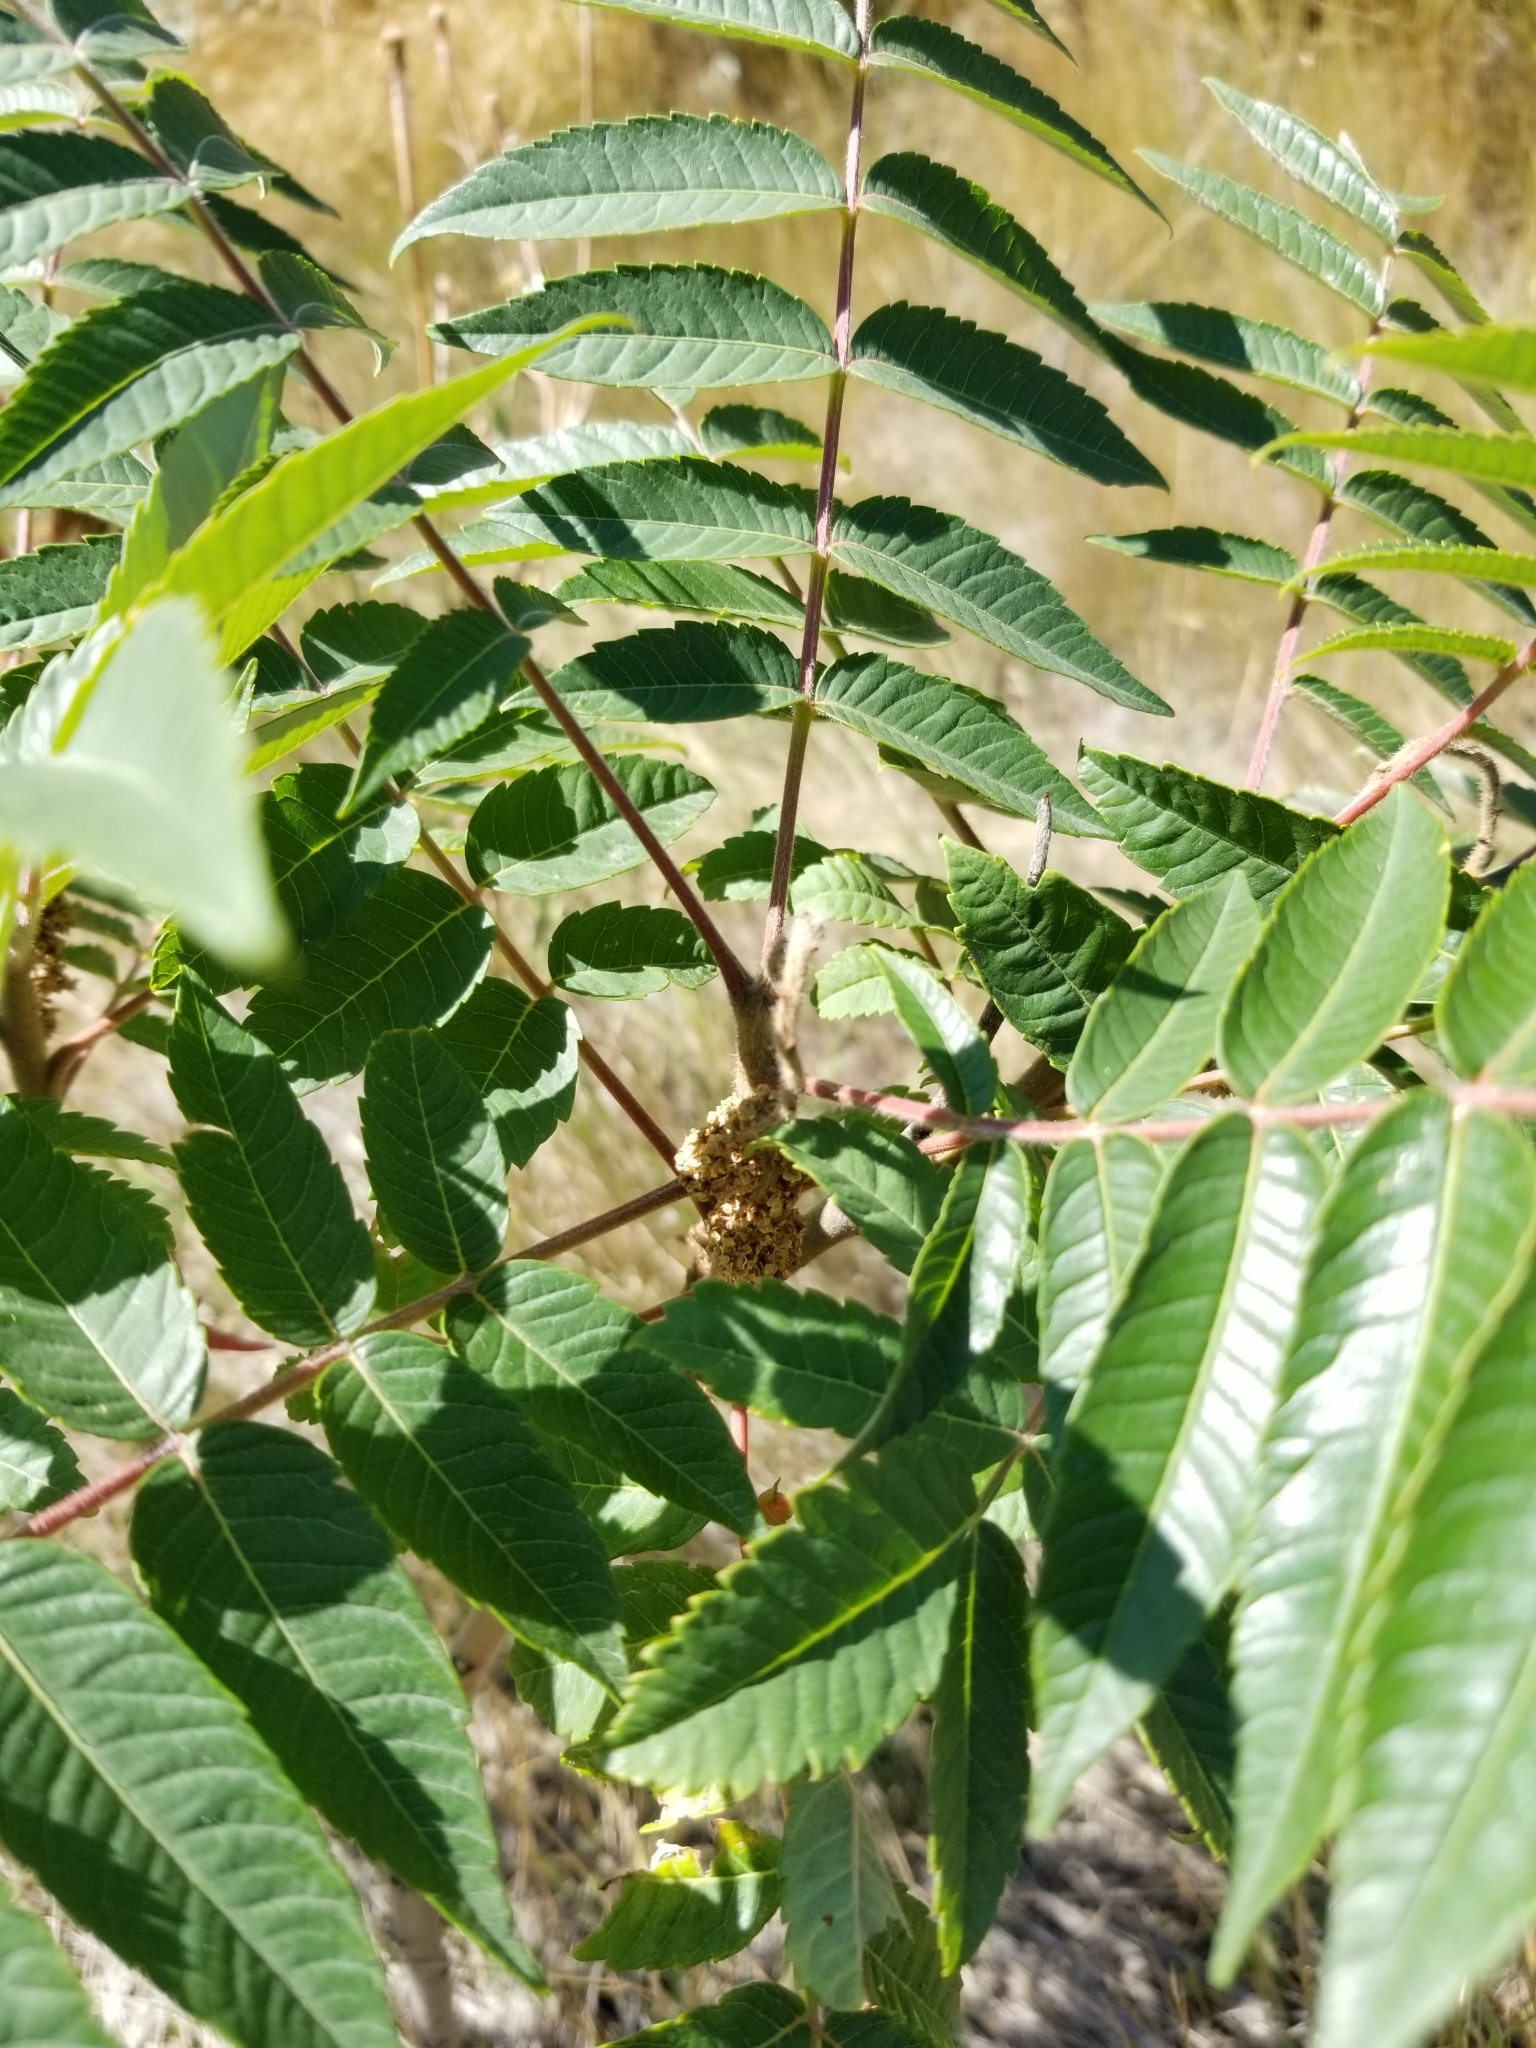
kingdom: Plantae
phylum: Tracheophyta
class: Magnoliopsida
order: Sapindales
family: Anacardiaceae
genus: Rhus
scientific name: Rhus typhina
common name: Staghorn sumac
